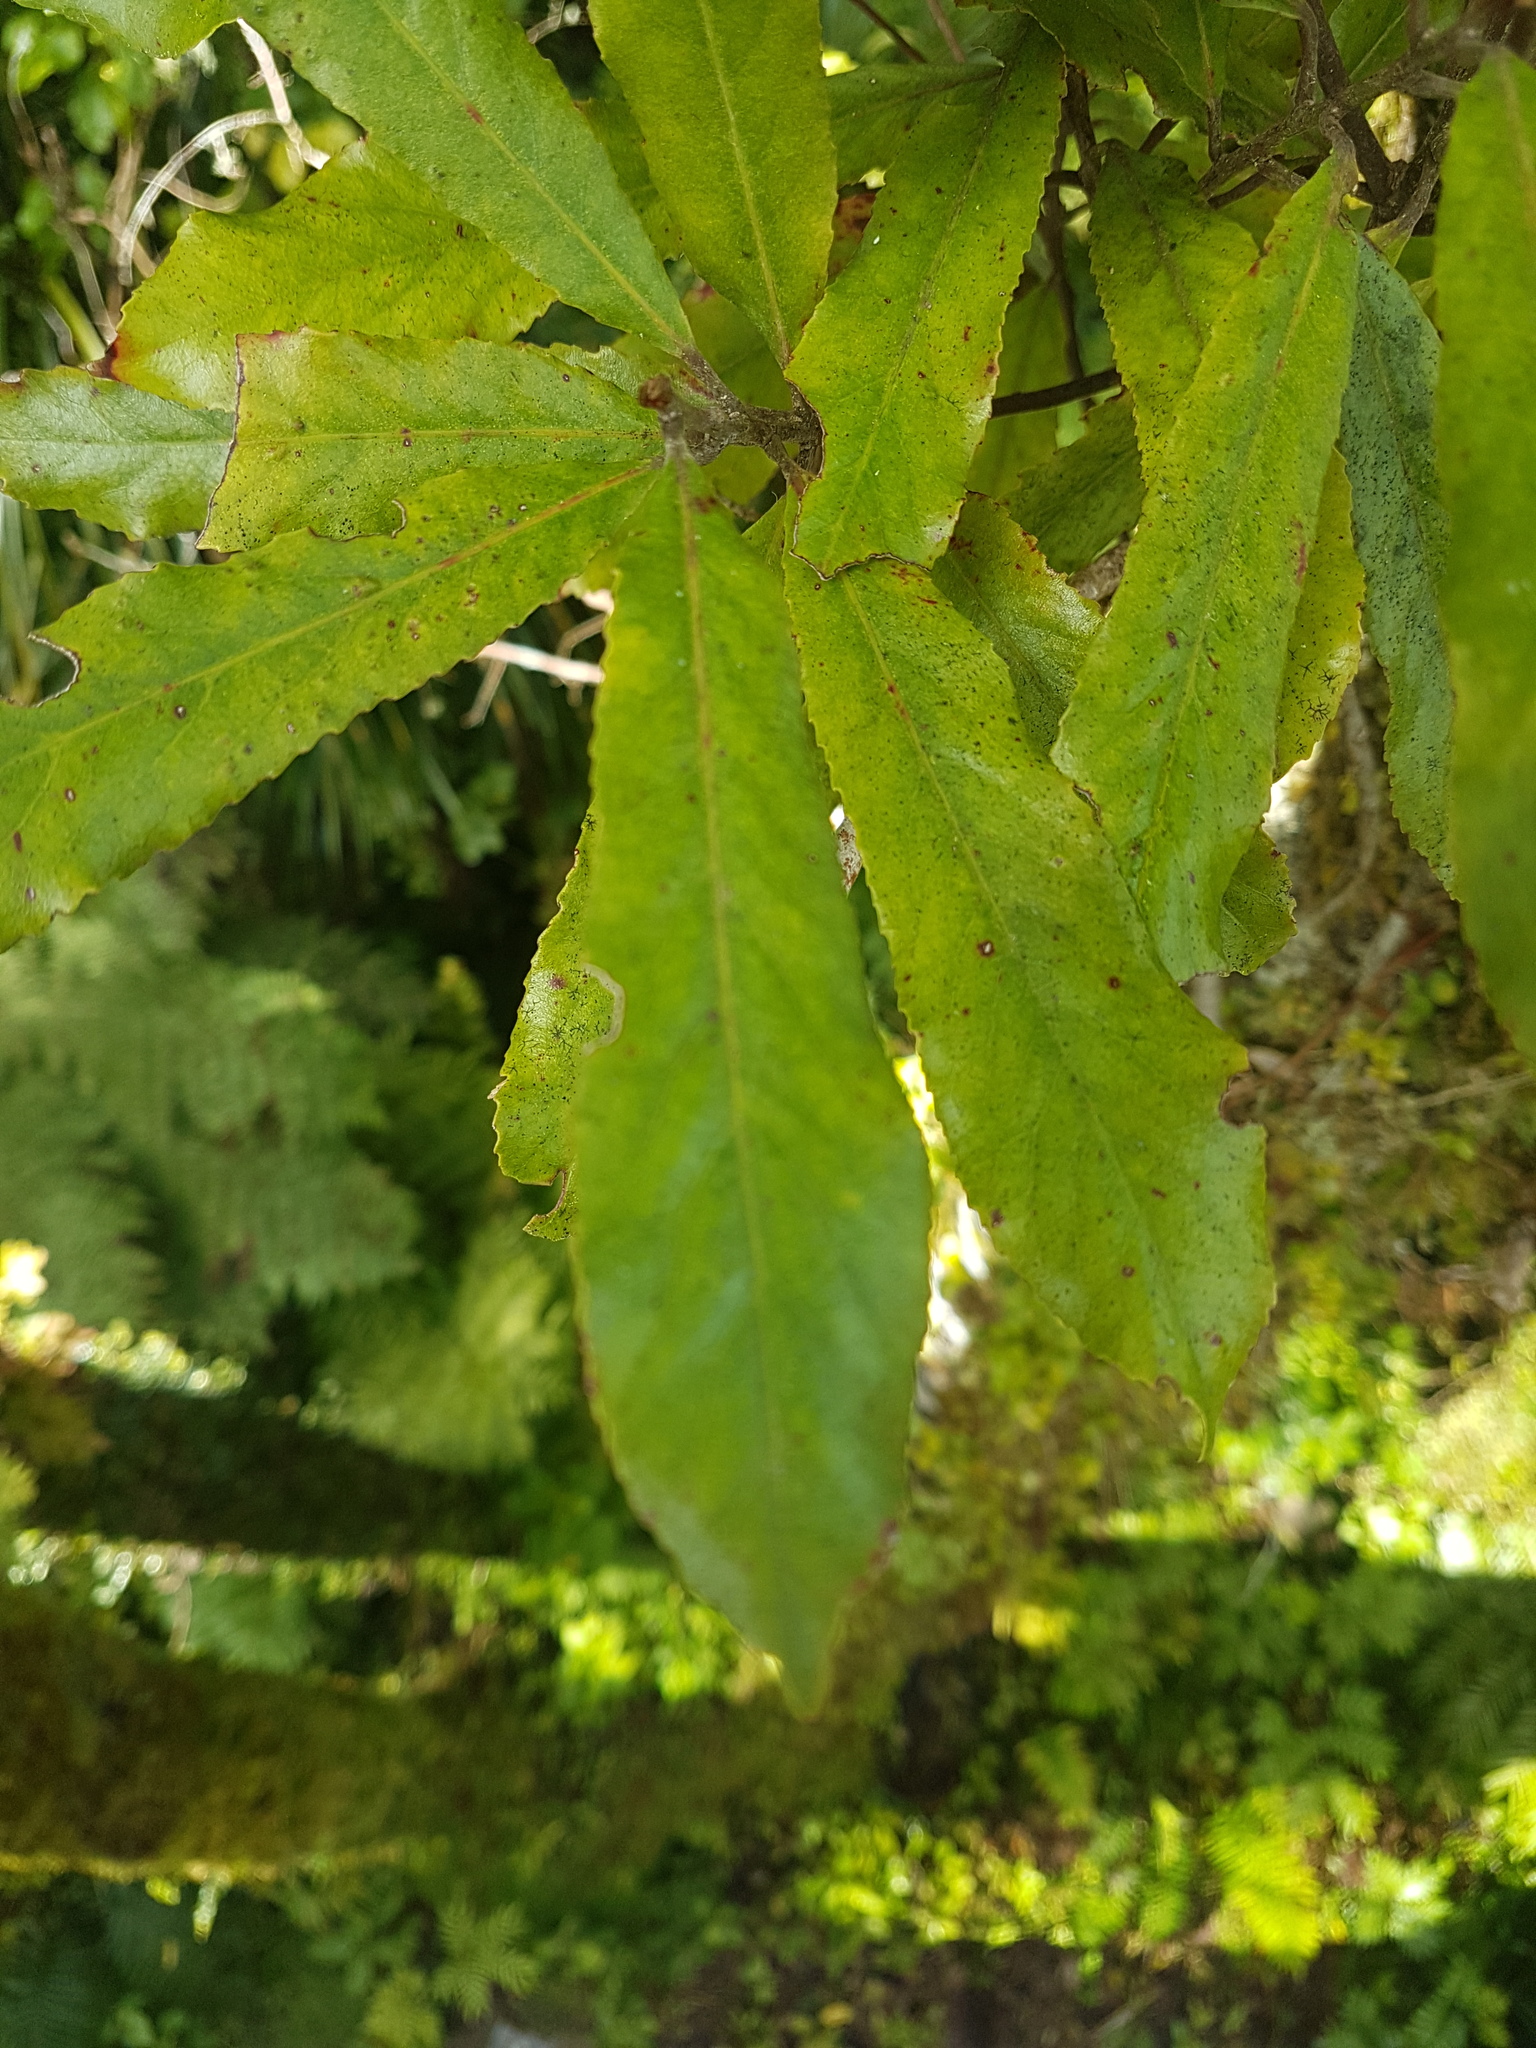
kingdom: Plantae
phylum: Tracheophyta
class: Magnoliopsida
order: Oxalidales
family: Elaeocarpaceae
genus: Elaeocarpus
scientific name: Elaeocarpus dentatus
